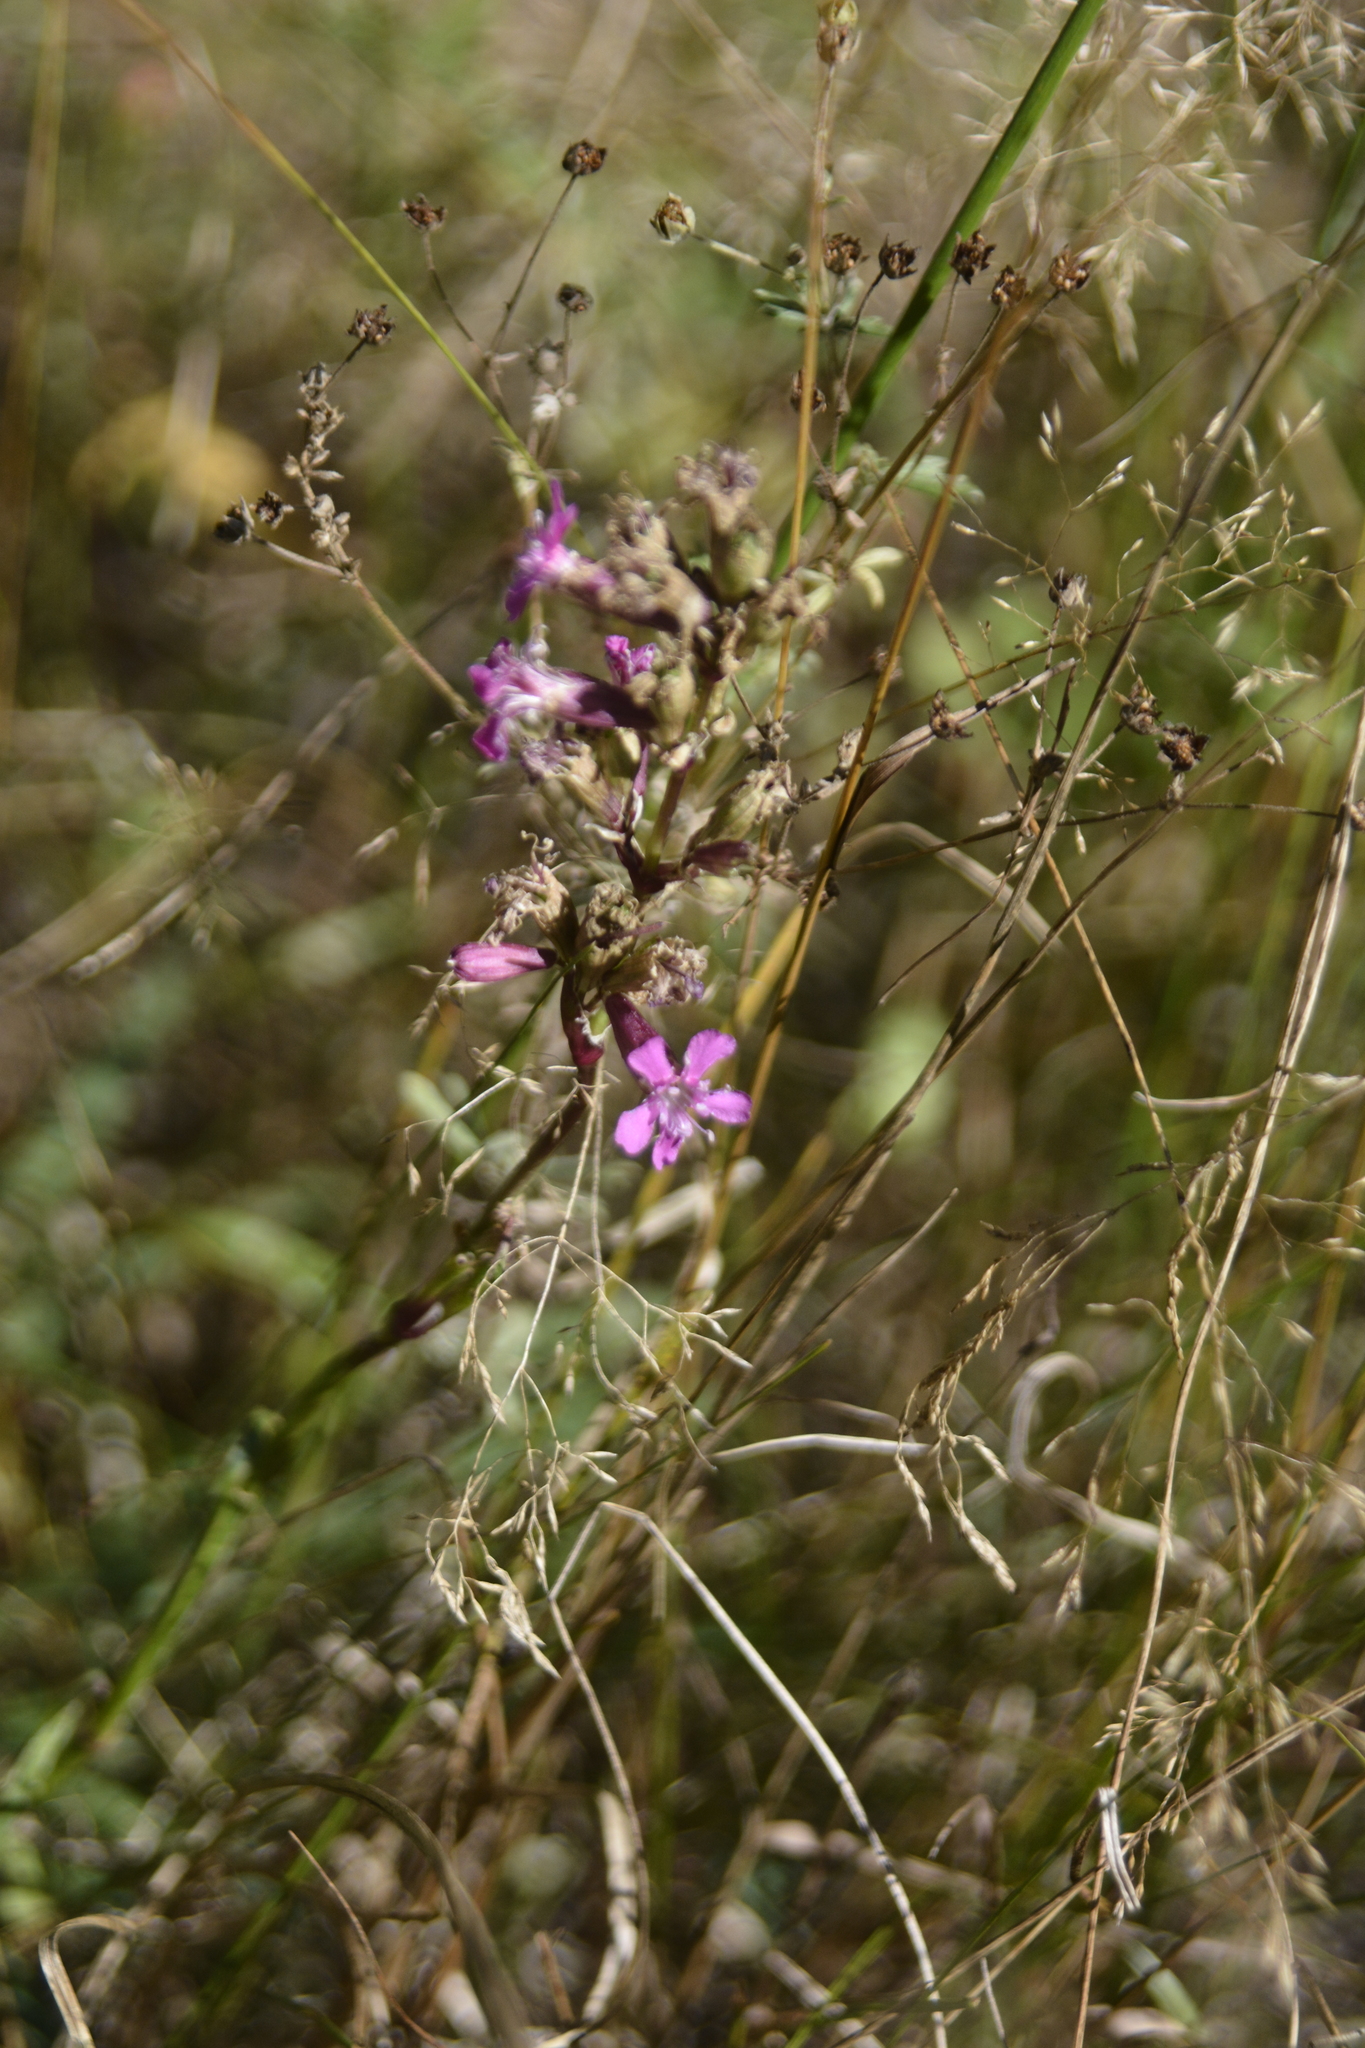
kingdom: Plantae
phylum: Tracheophyta
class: Magnoliopsida
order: Caryophyllales
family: Caryophyllaceae
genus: Viscaria
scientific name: Viscaria vulgaris
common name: Clammy campion
